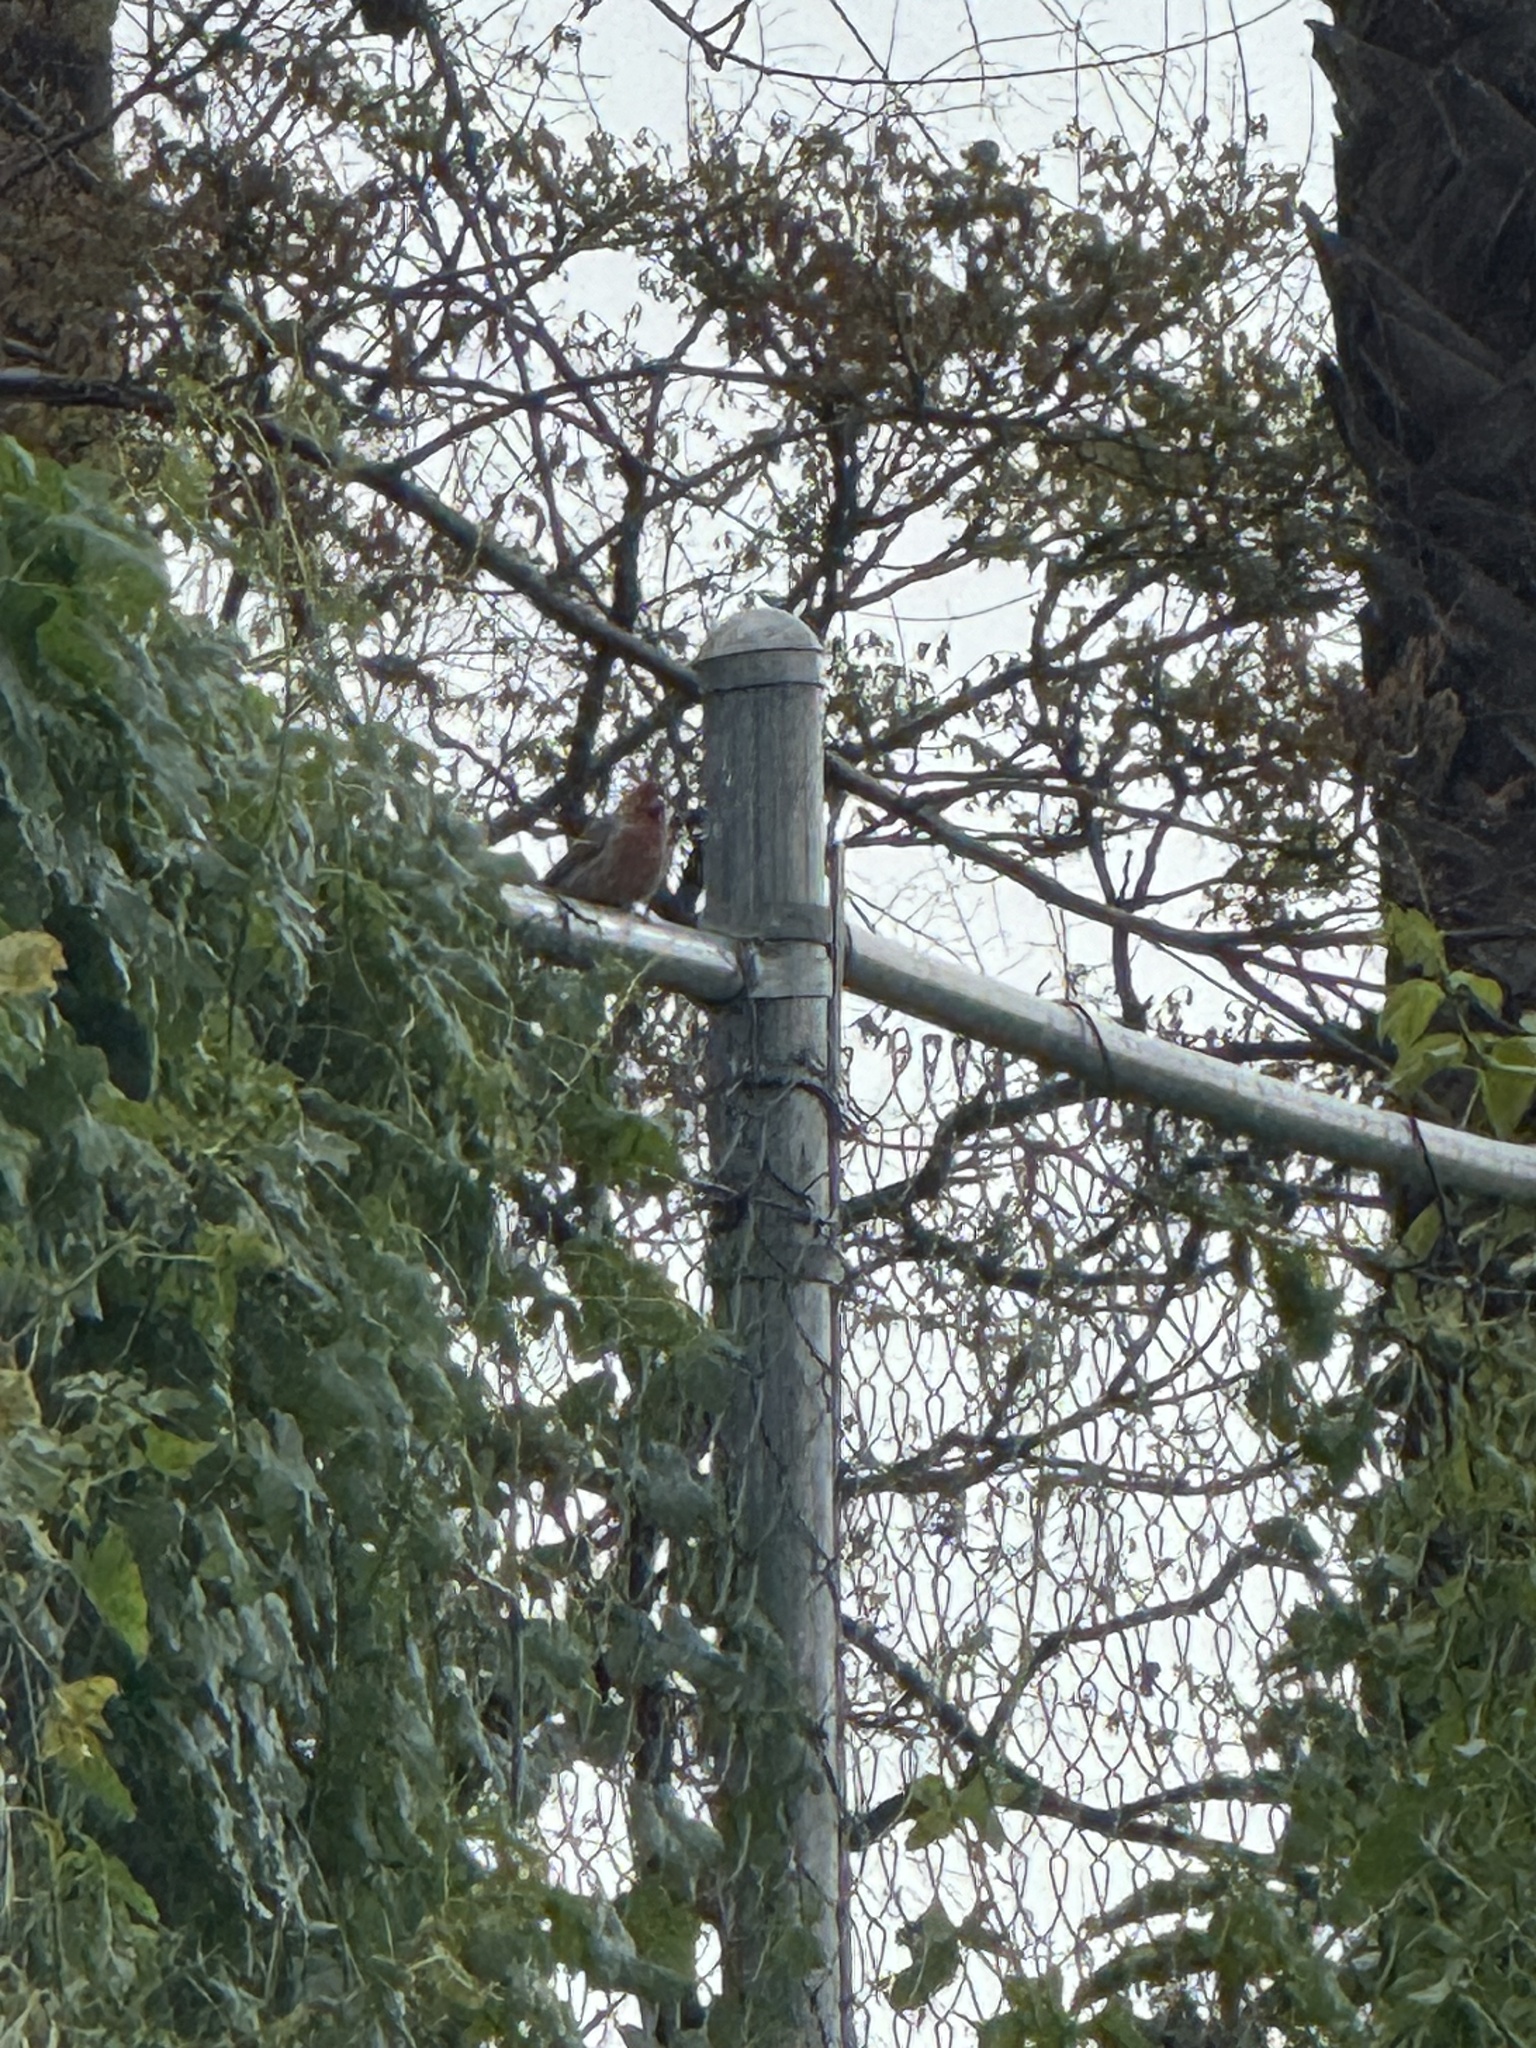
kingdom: Animalia
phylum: Chordata
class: Aves
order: Passeriformes
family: Fringillidae
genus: Haemorhous
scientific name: Haemorhous mexicanus
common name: House finch
